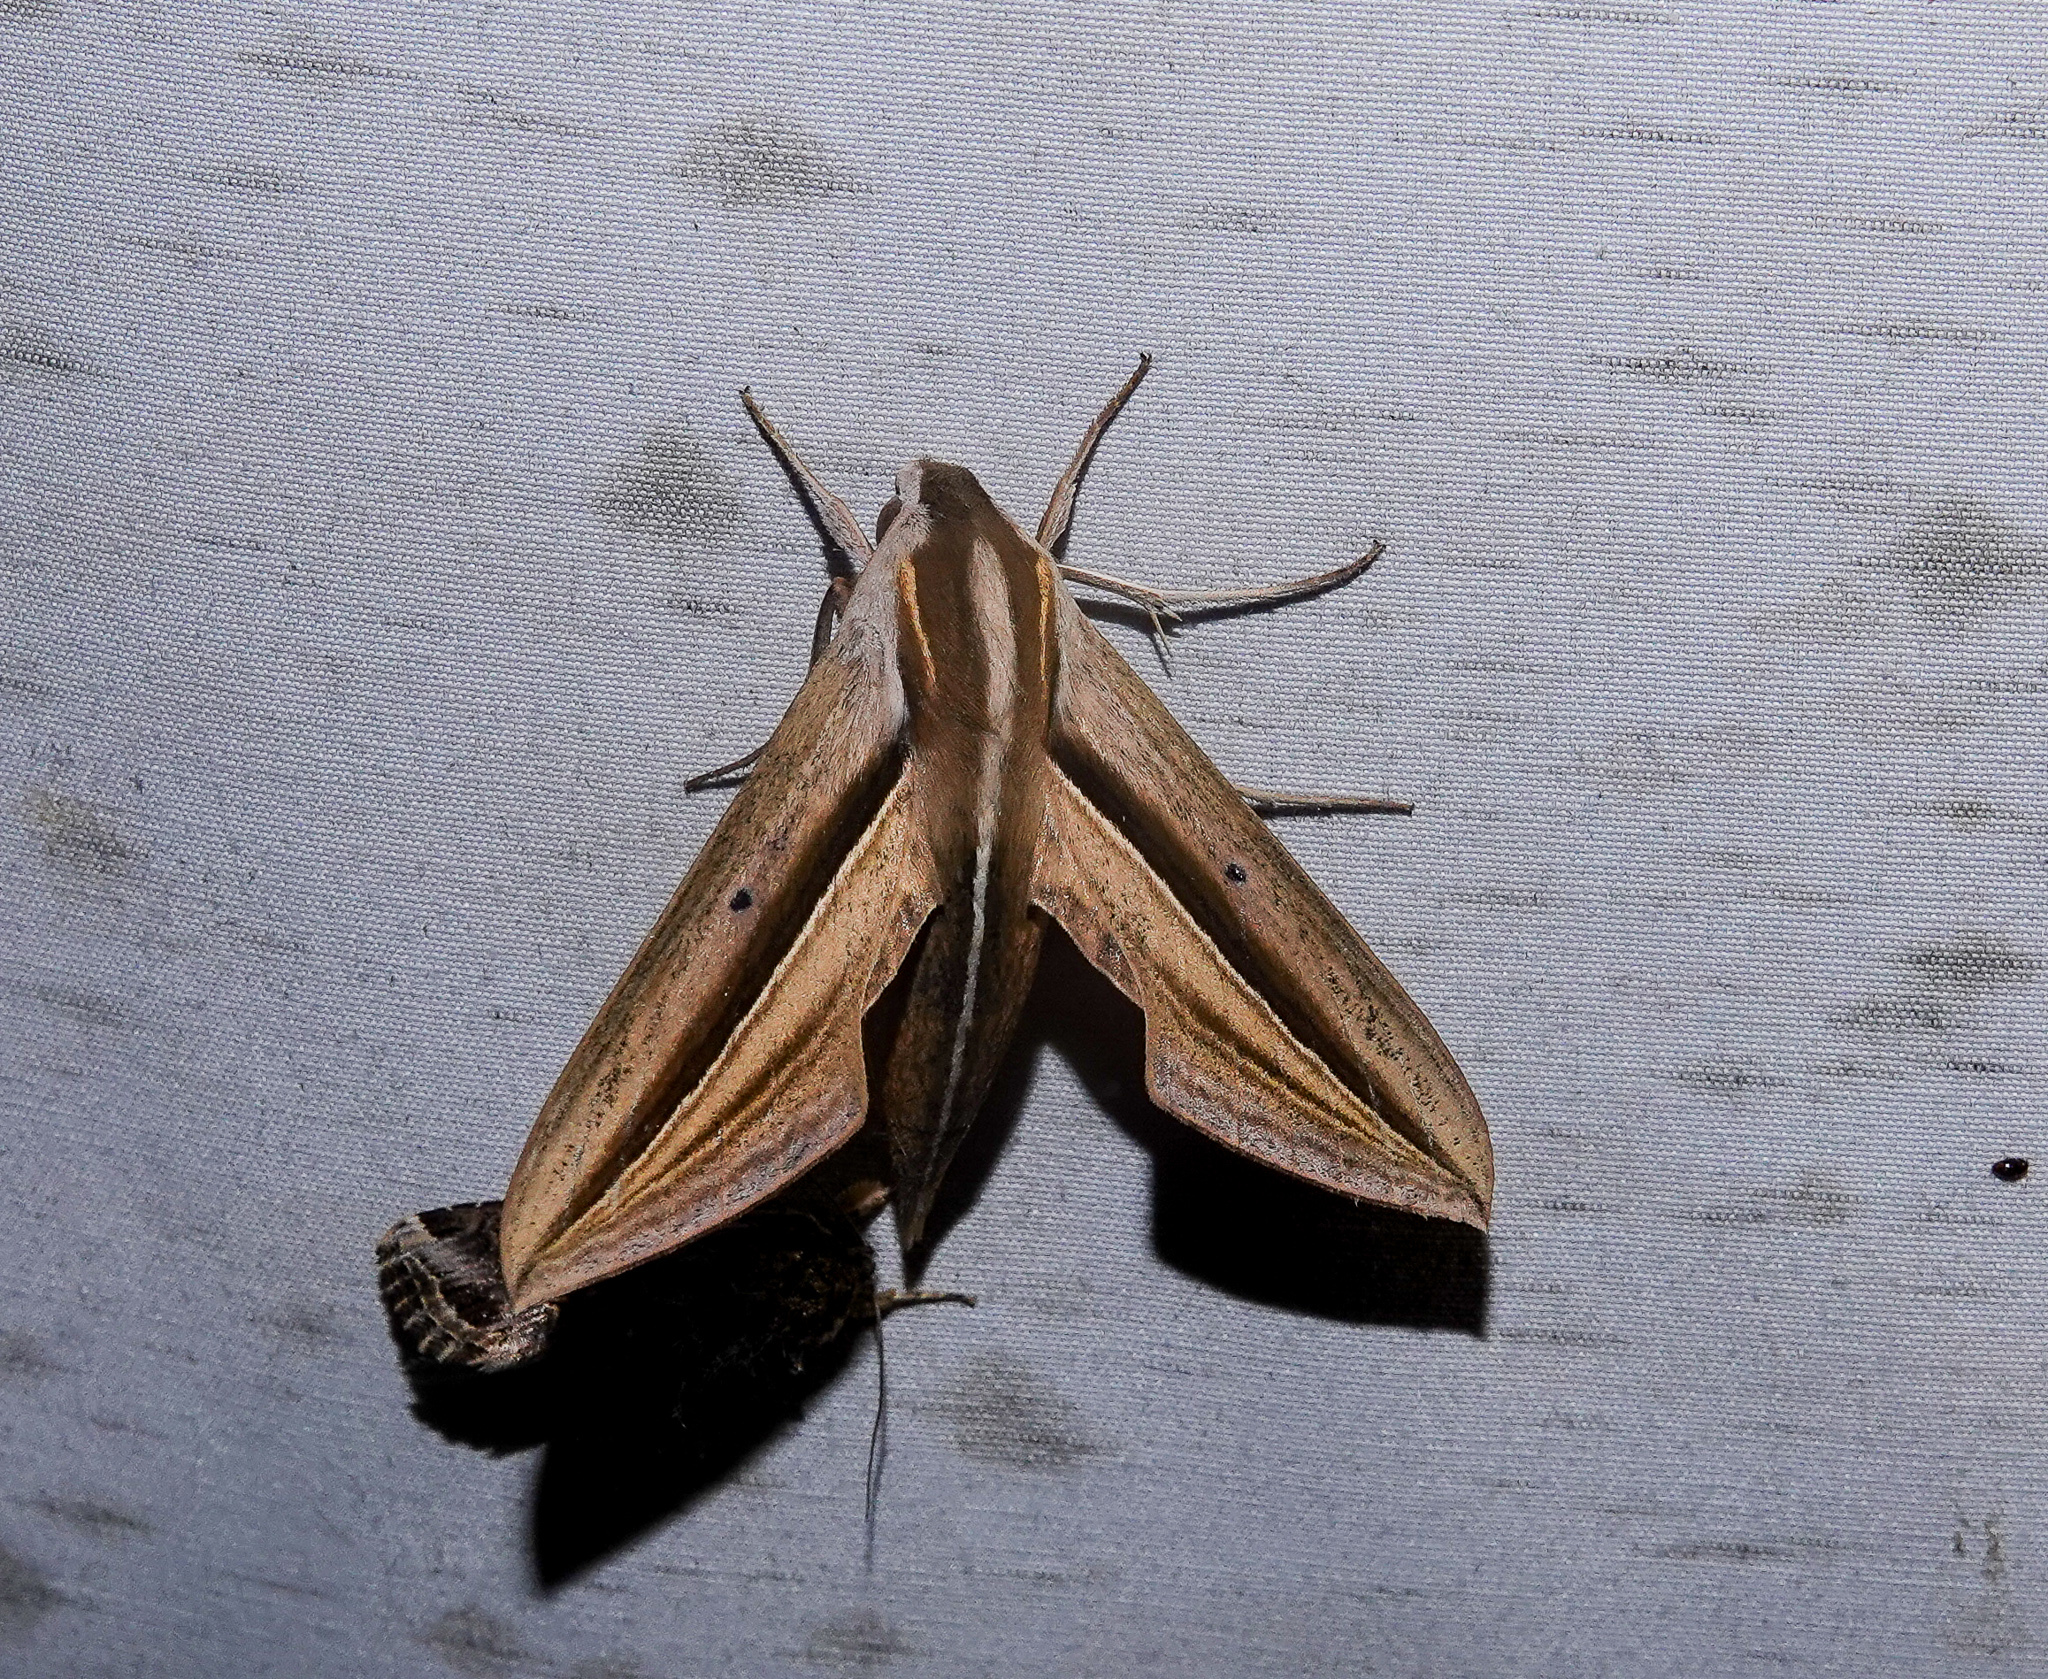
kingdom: Animalia
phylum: Arthropoda
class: Insecta
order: Lepidoptera
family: Sphingidae
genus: Theretra
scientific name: Theretra silhetensis
